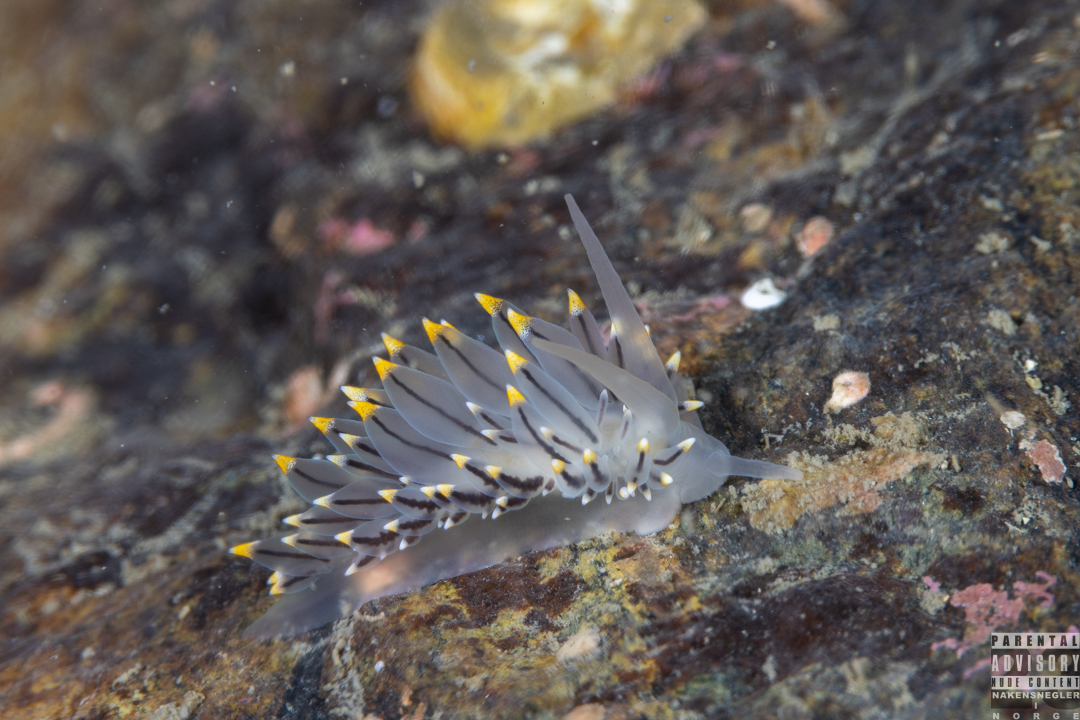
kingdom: Animalia
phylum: Mollusca
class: Gastropoda
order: Nudibranchia
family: Eubranchidae
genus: Eubranchus
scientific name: Eubranchus tricolor
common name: Painted balloon aeolis
